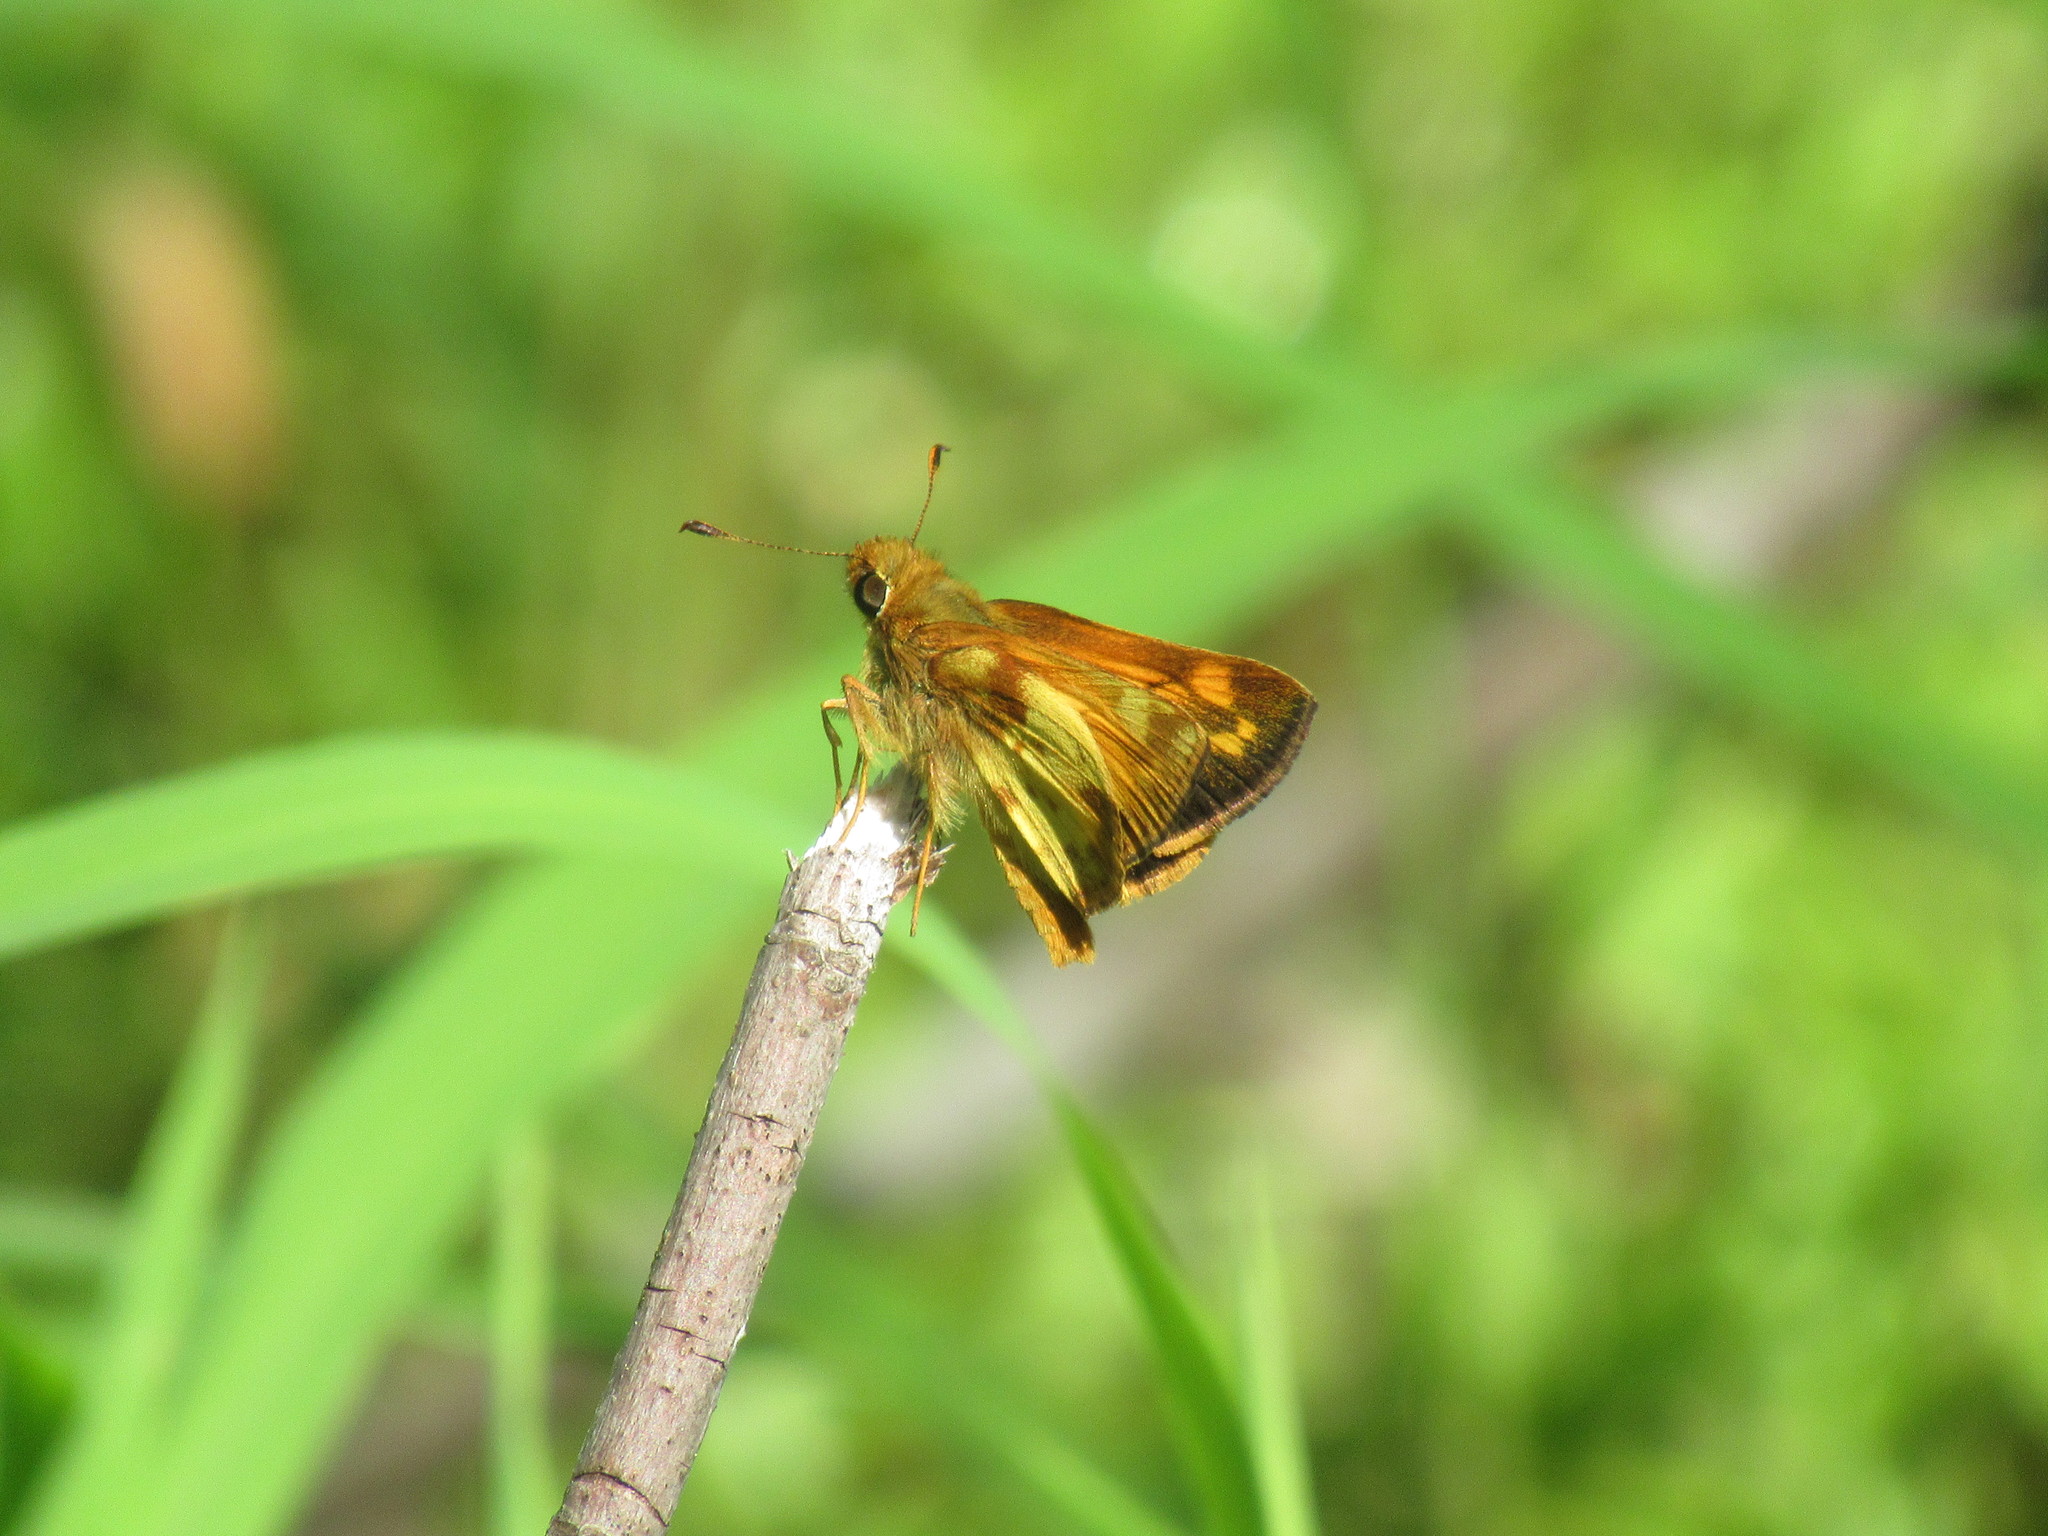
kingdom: Animalia
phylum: Arthropoda
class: Insecta
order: Lepidoptera
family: Hesperiidae
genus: Lon
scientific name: Lon zabulon
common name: Zabulon skipper
